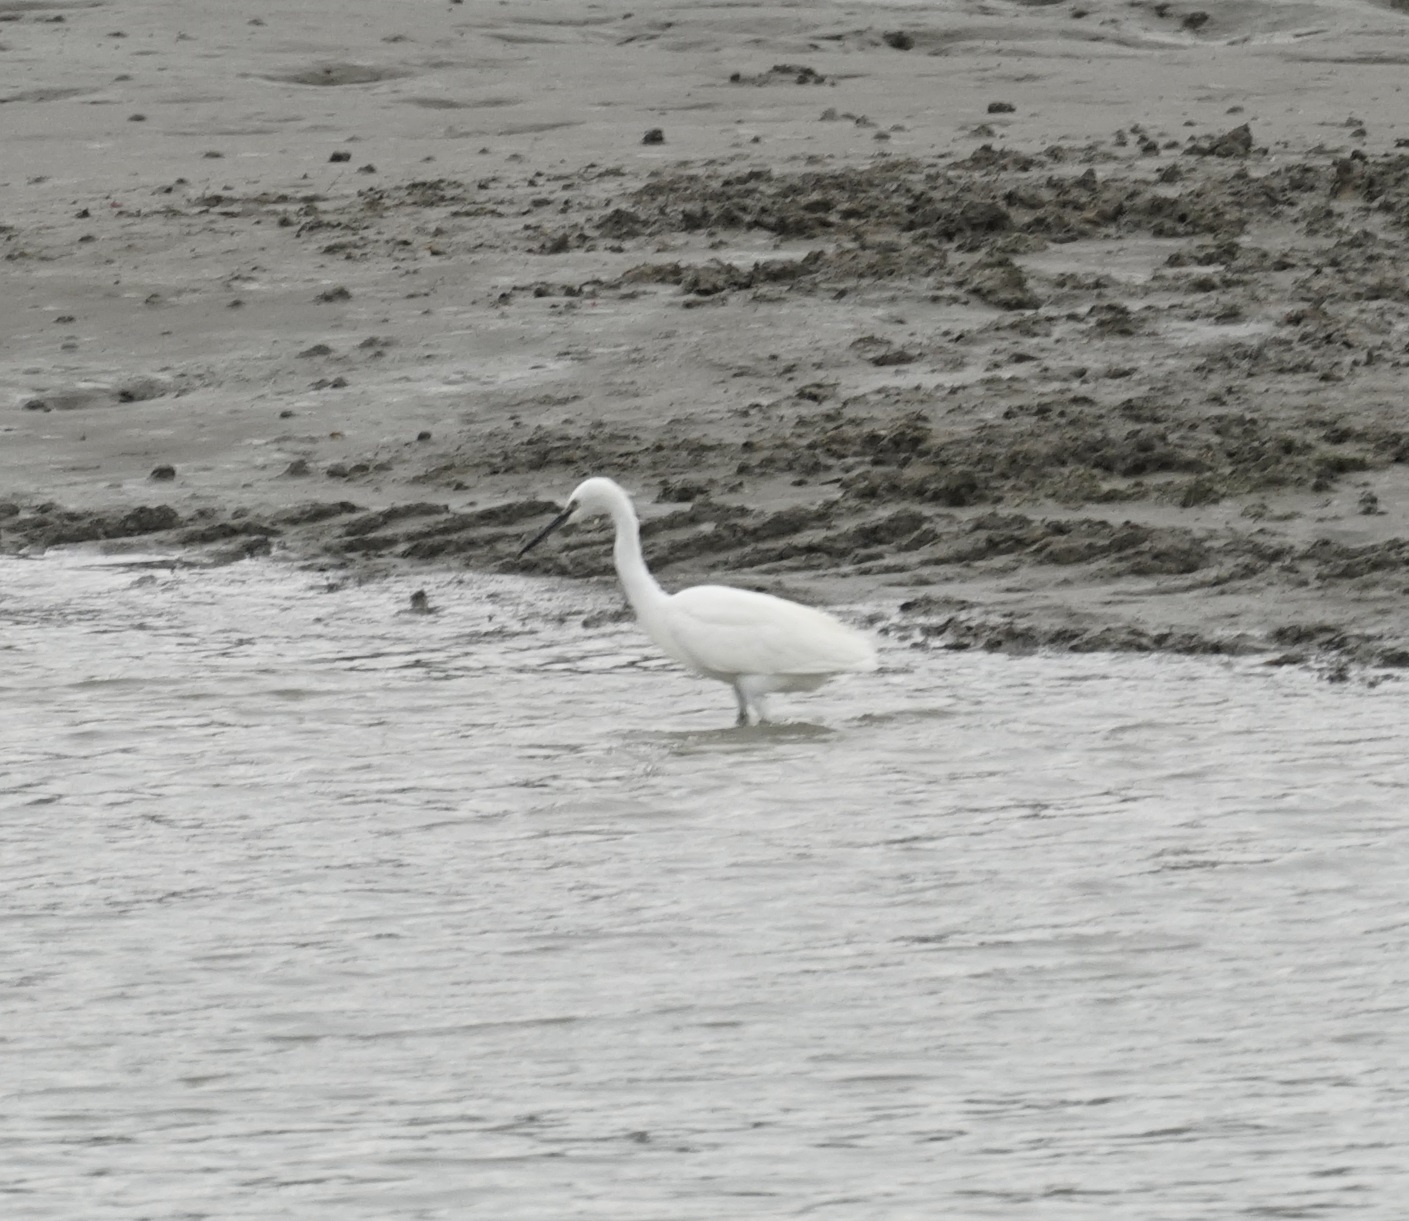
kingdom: Animalia
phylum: Chordata
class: Aves
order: Pelecaniformes
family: Ardeidae
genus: Egretta
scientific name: Egretta garzetta
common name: Little egret
